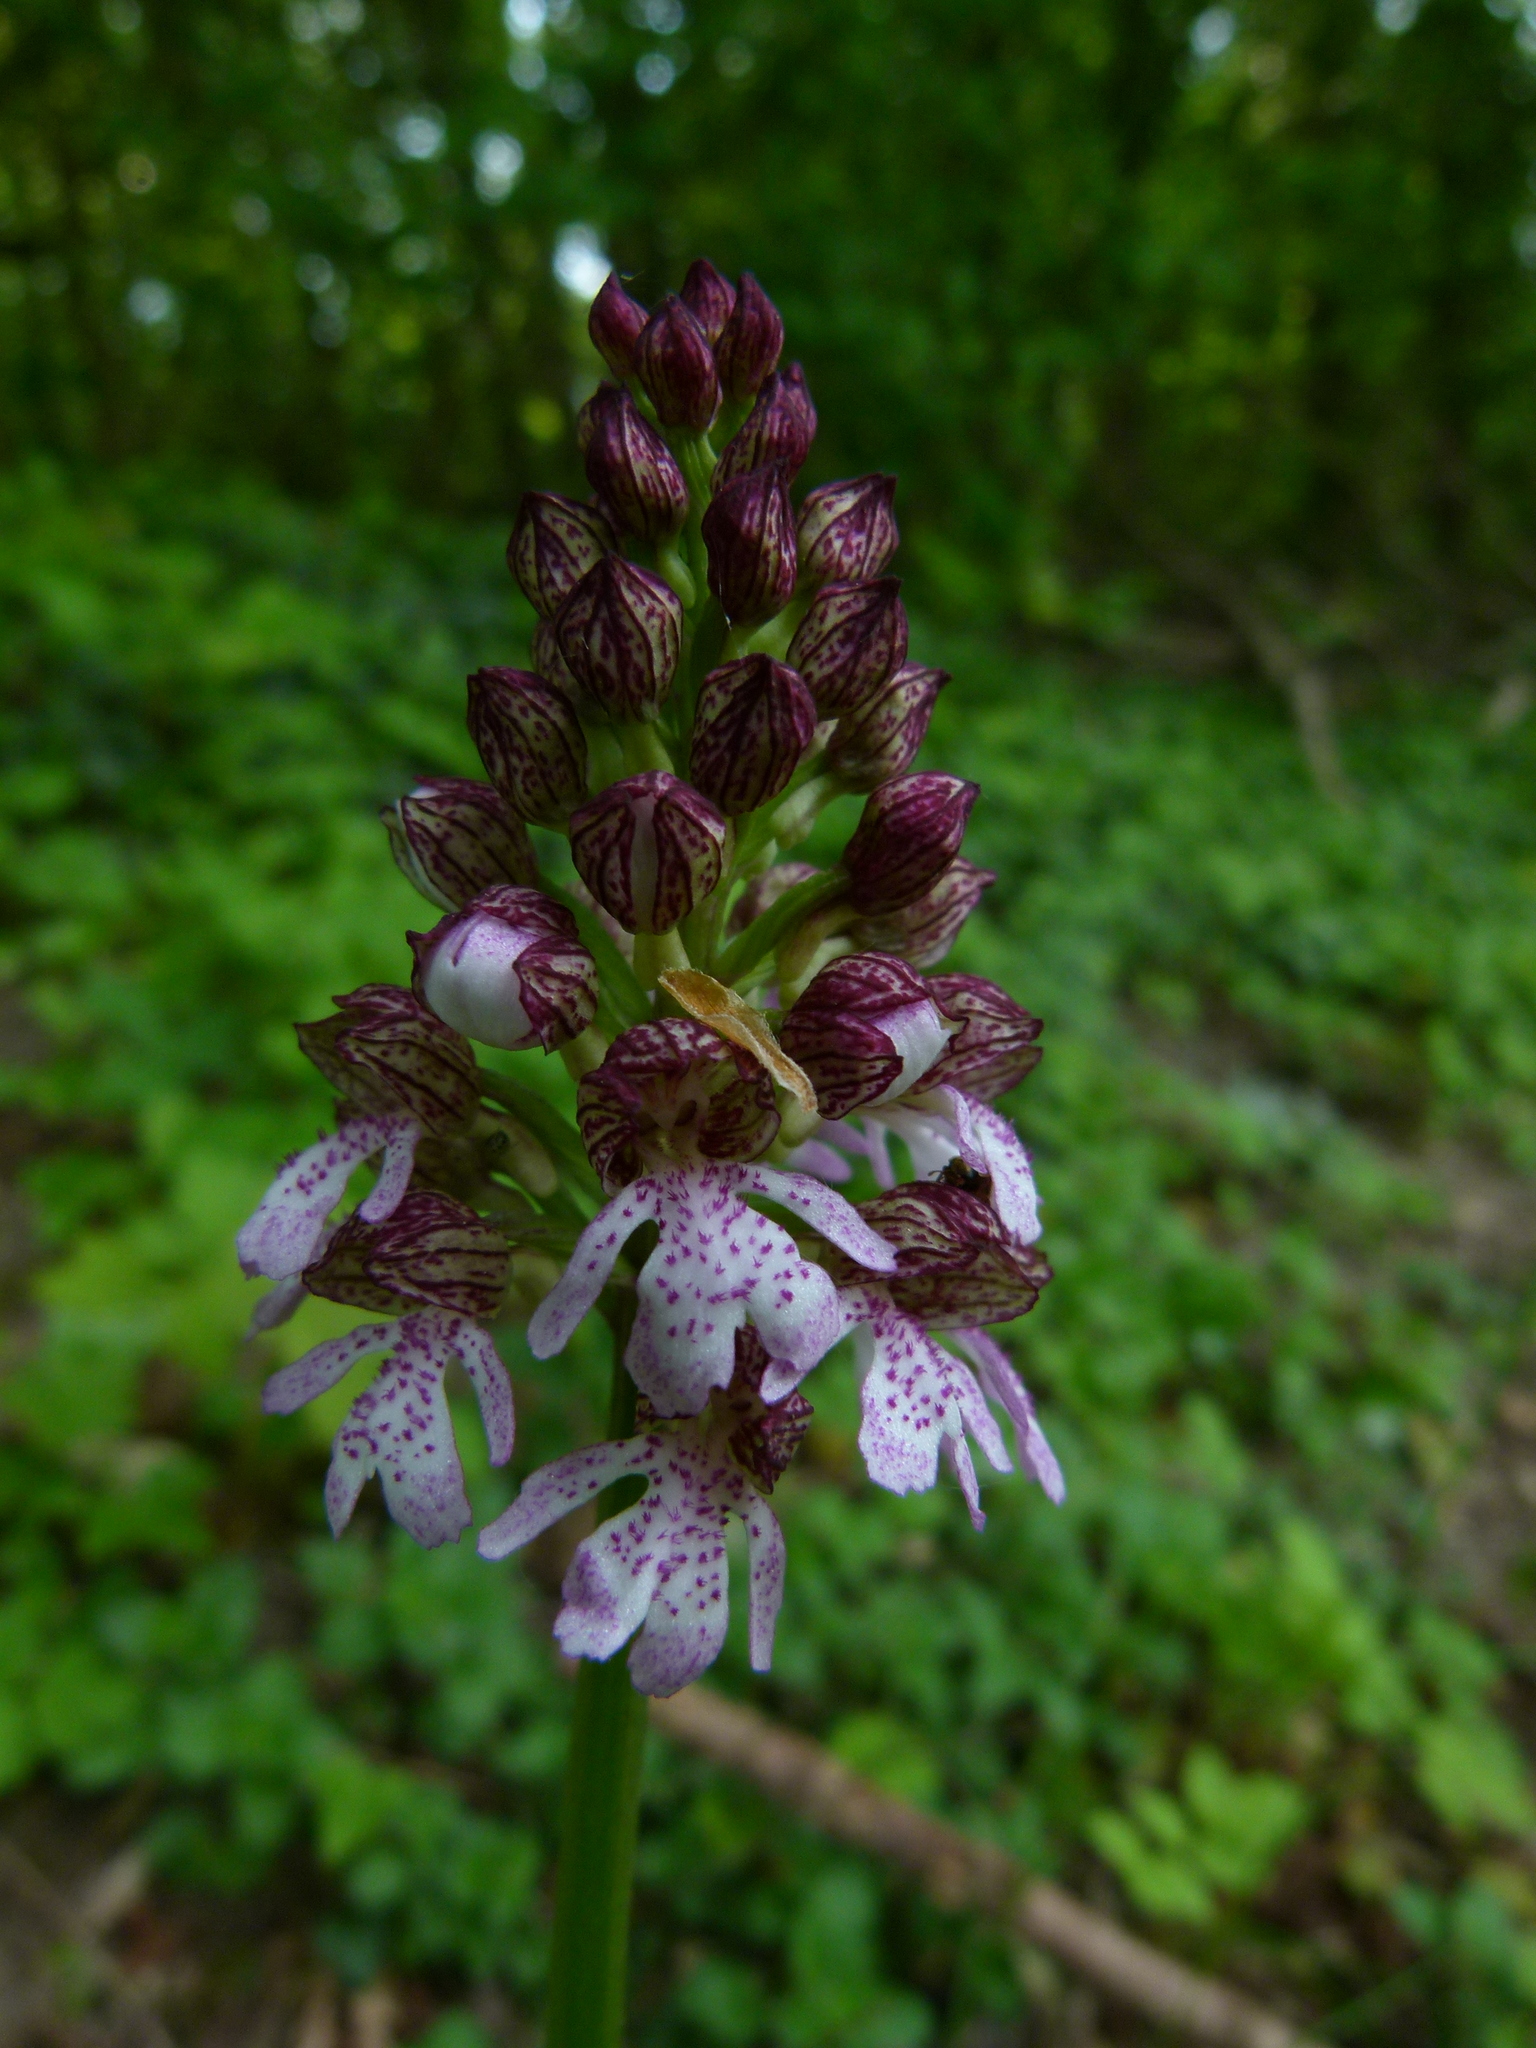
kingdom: Plantae
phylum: Tracheophyta
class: Liliopsida
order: Asparagales
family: Orchidaceae
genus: Orchis
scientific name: Orchis purpurea
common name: Lady orchid
